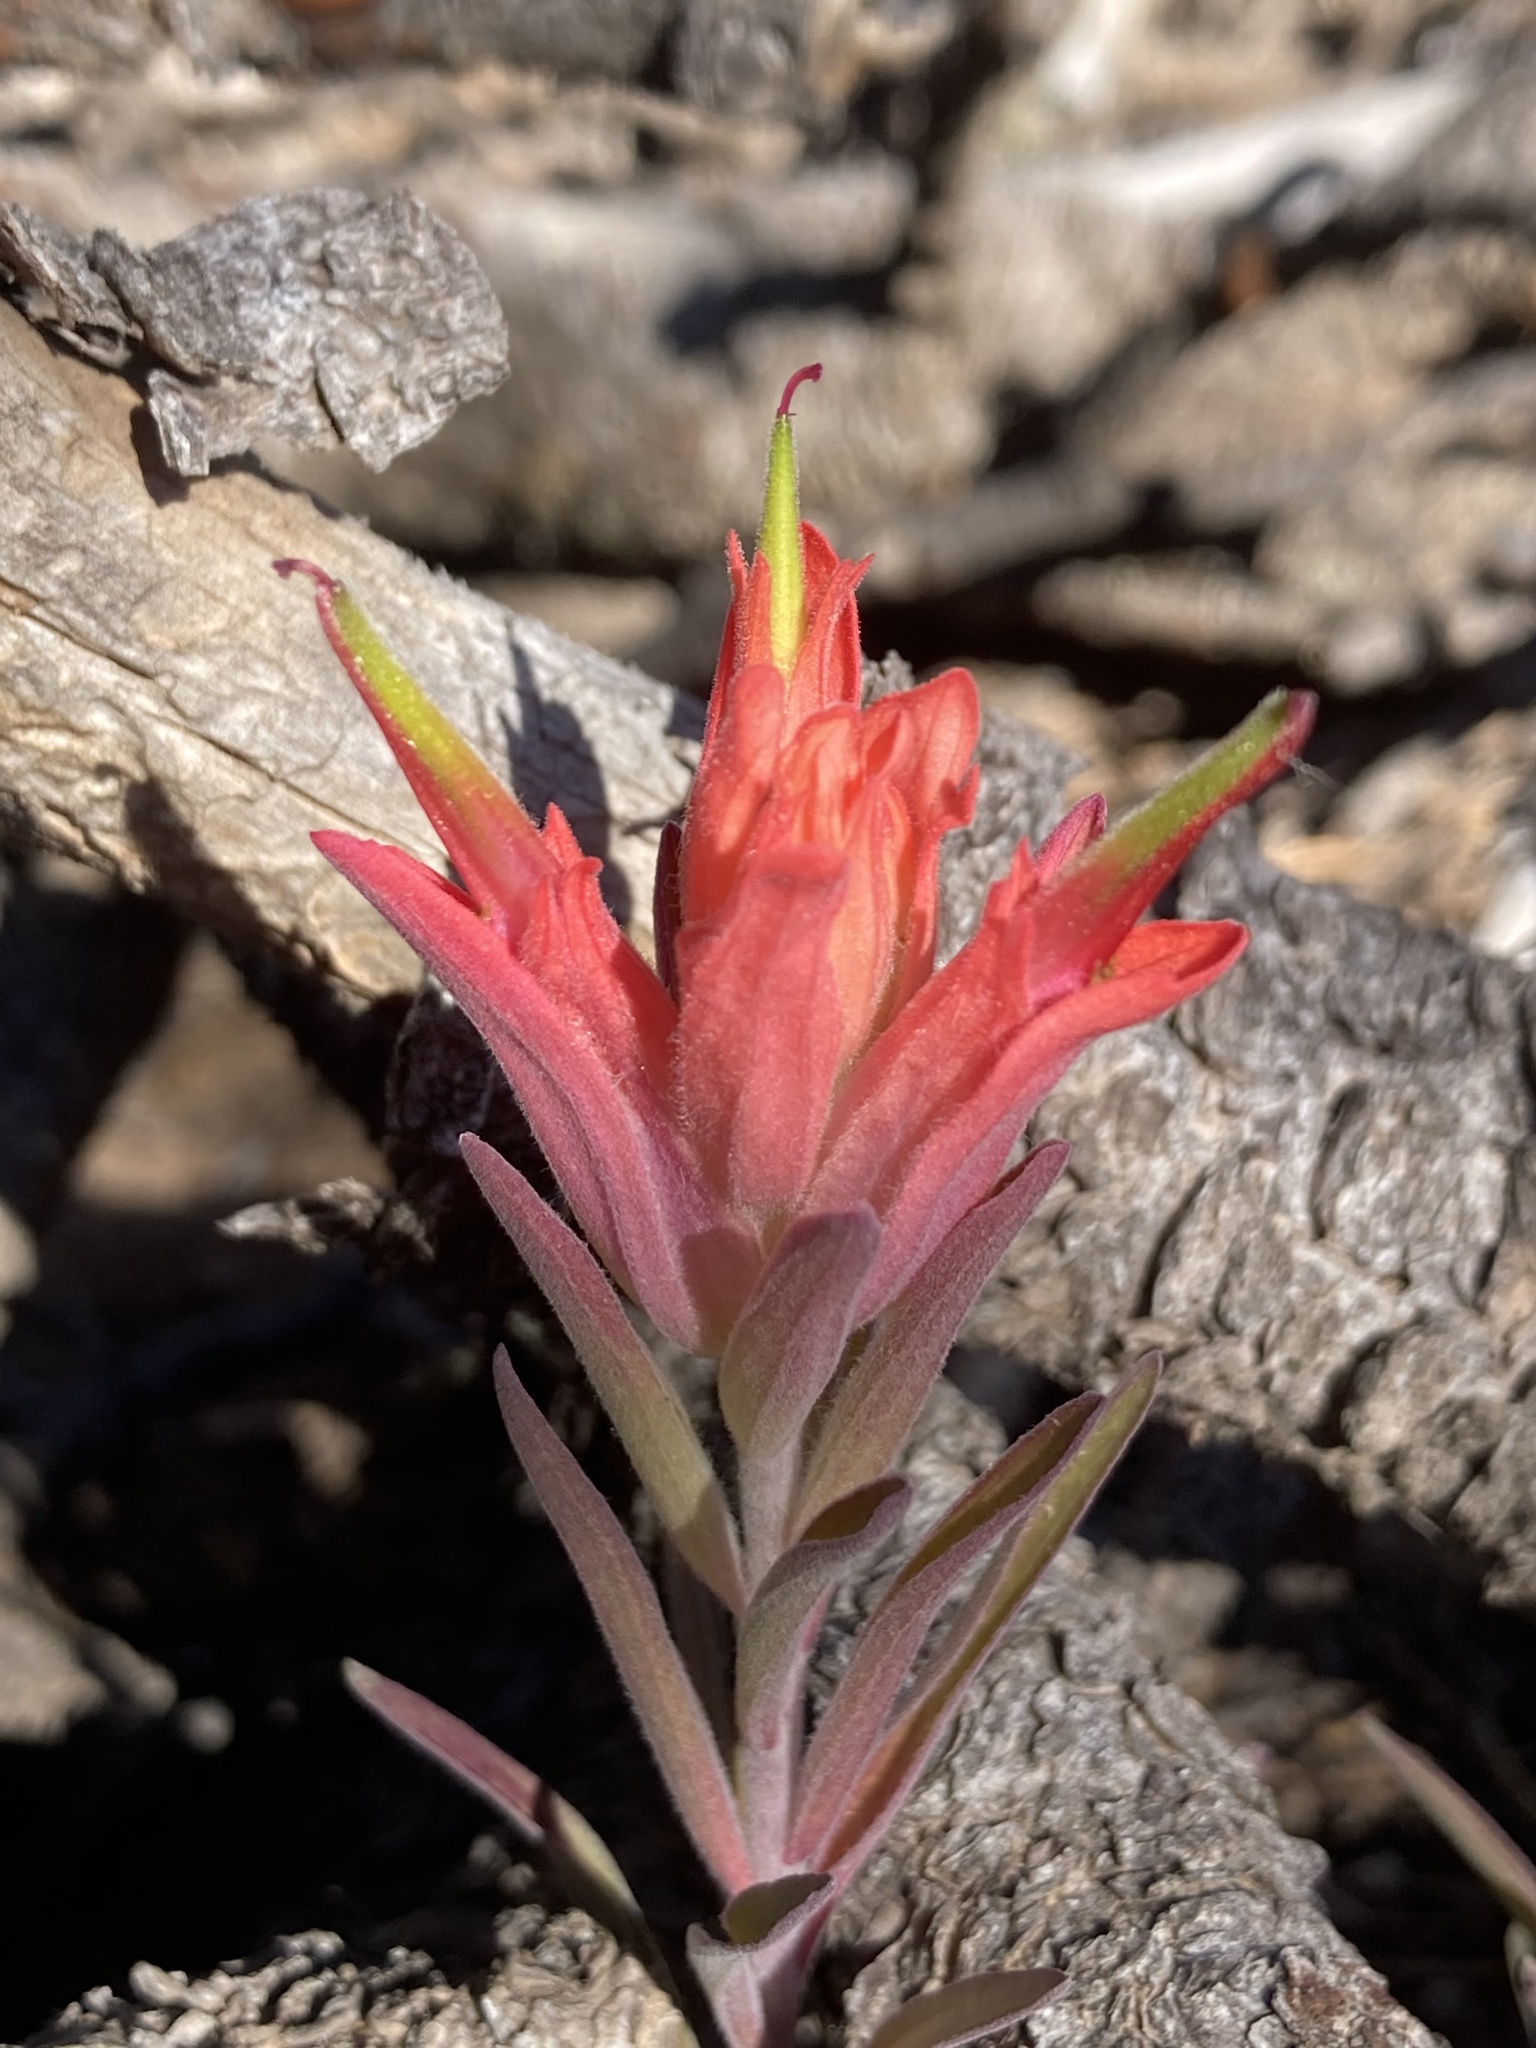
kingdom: Plantae
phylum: Tracheophyta
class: Magnoliopsida
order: Lamiales
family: Orobanchaceae
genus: Castilleja
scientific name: Castilleja integra
